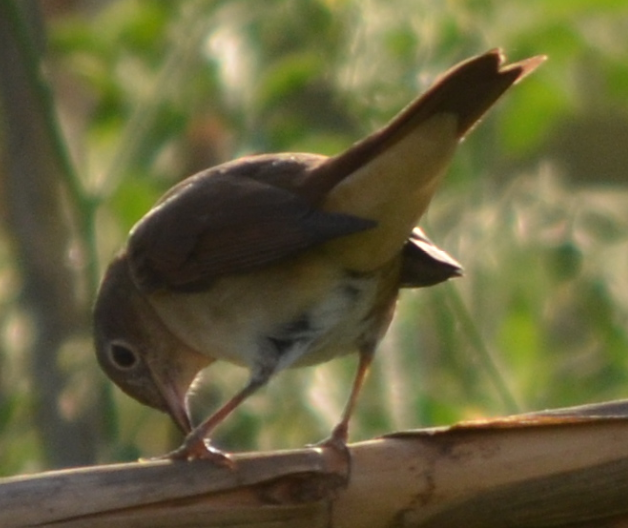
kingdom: Animalia
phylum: Chordata
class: Aves
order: Passeriformes
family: Muscicapidae
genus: Luscinia
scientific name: Luscinia megarhynchos
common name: Common nightingale
